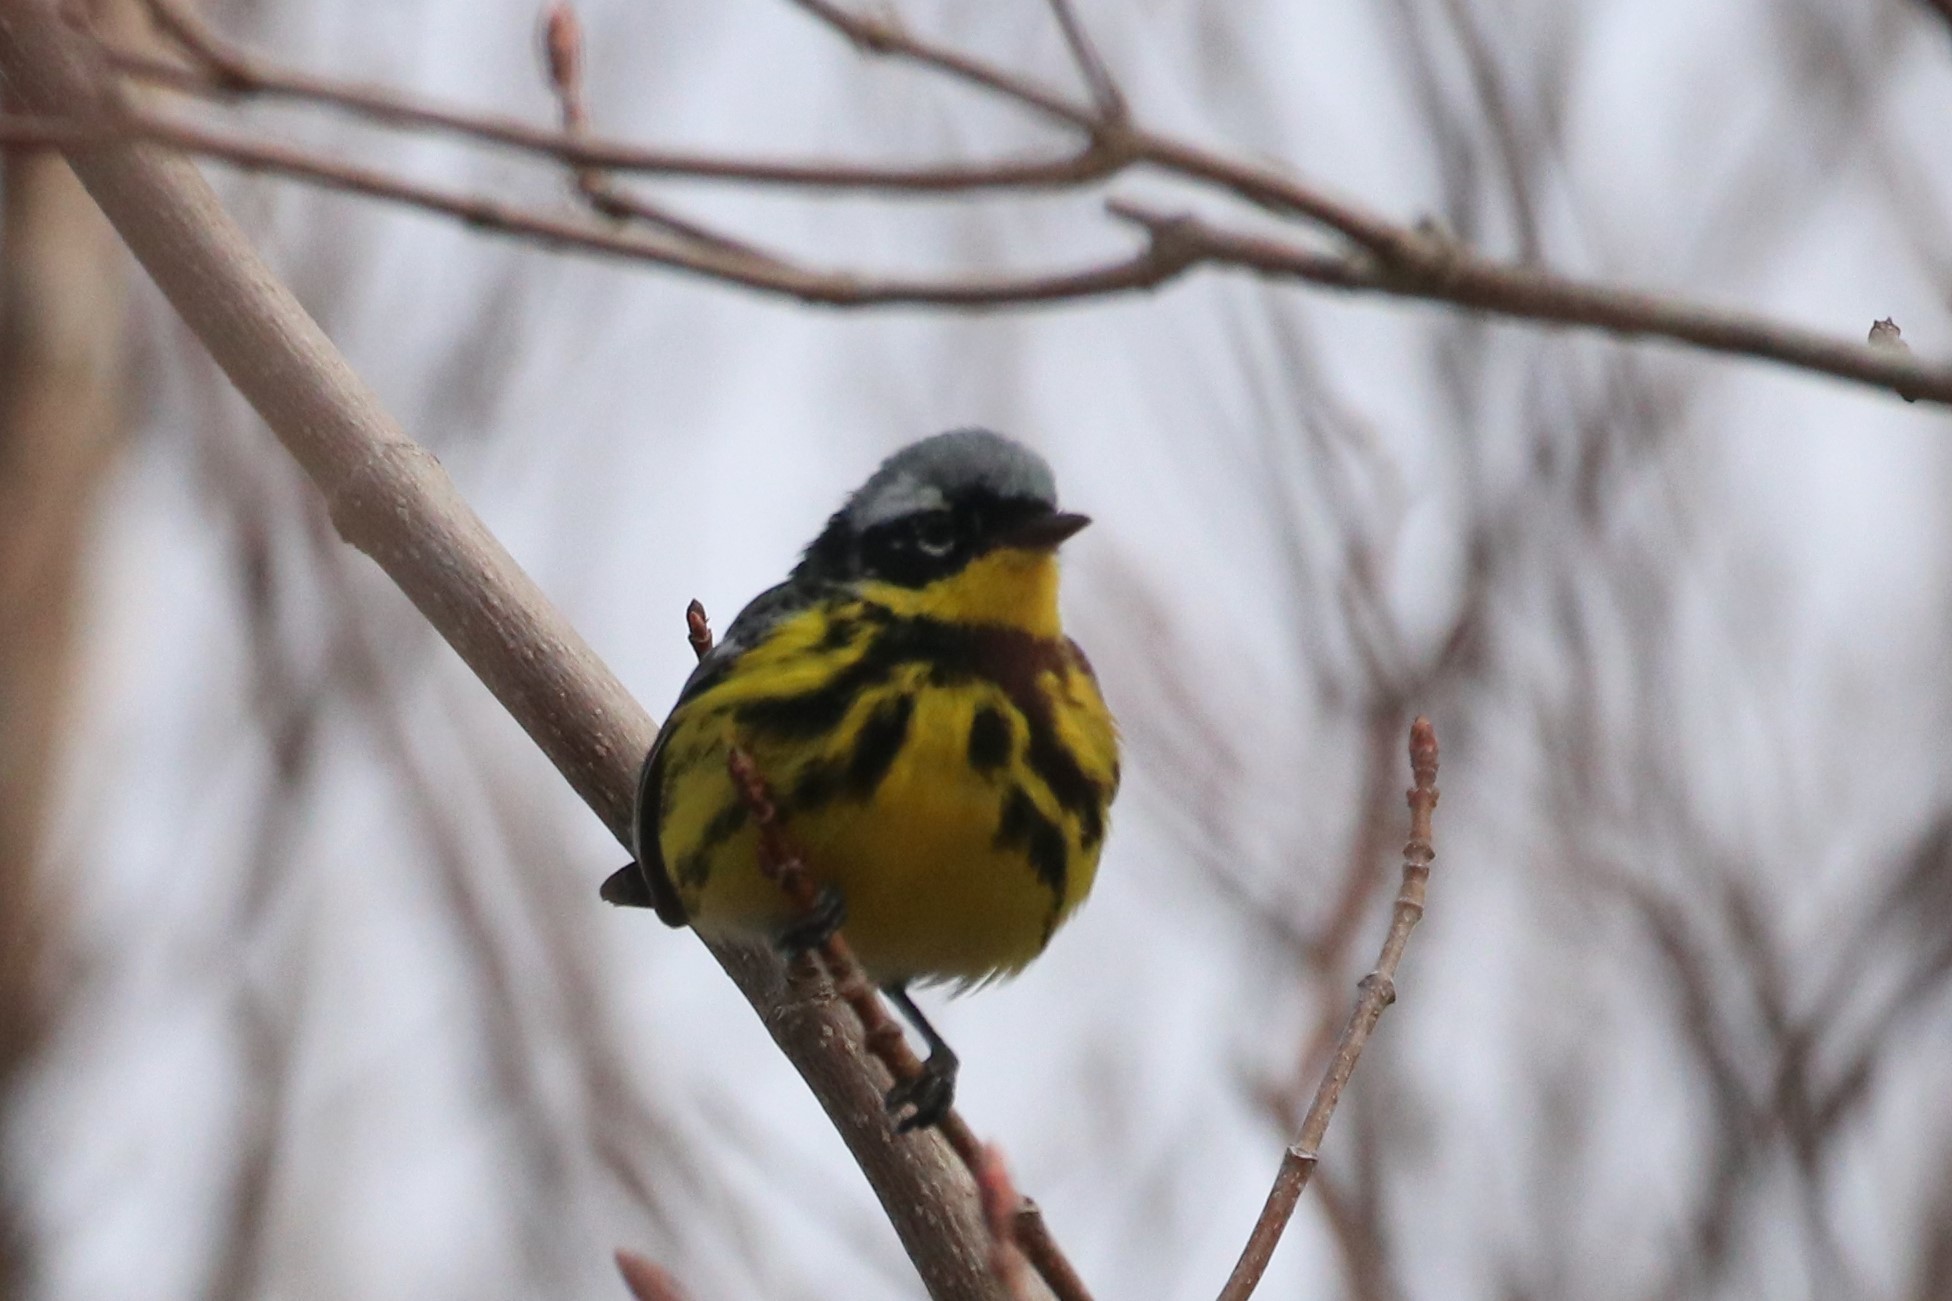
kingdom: Animalia
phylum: Chordata
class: Aves
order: Passeriformes
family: Parulidae
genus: Setophaga
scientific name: Setophaga magnolia
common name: Magnolia warbler
